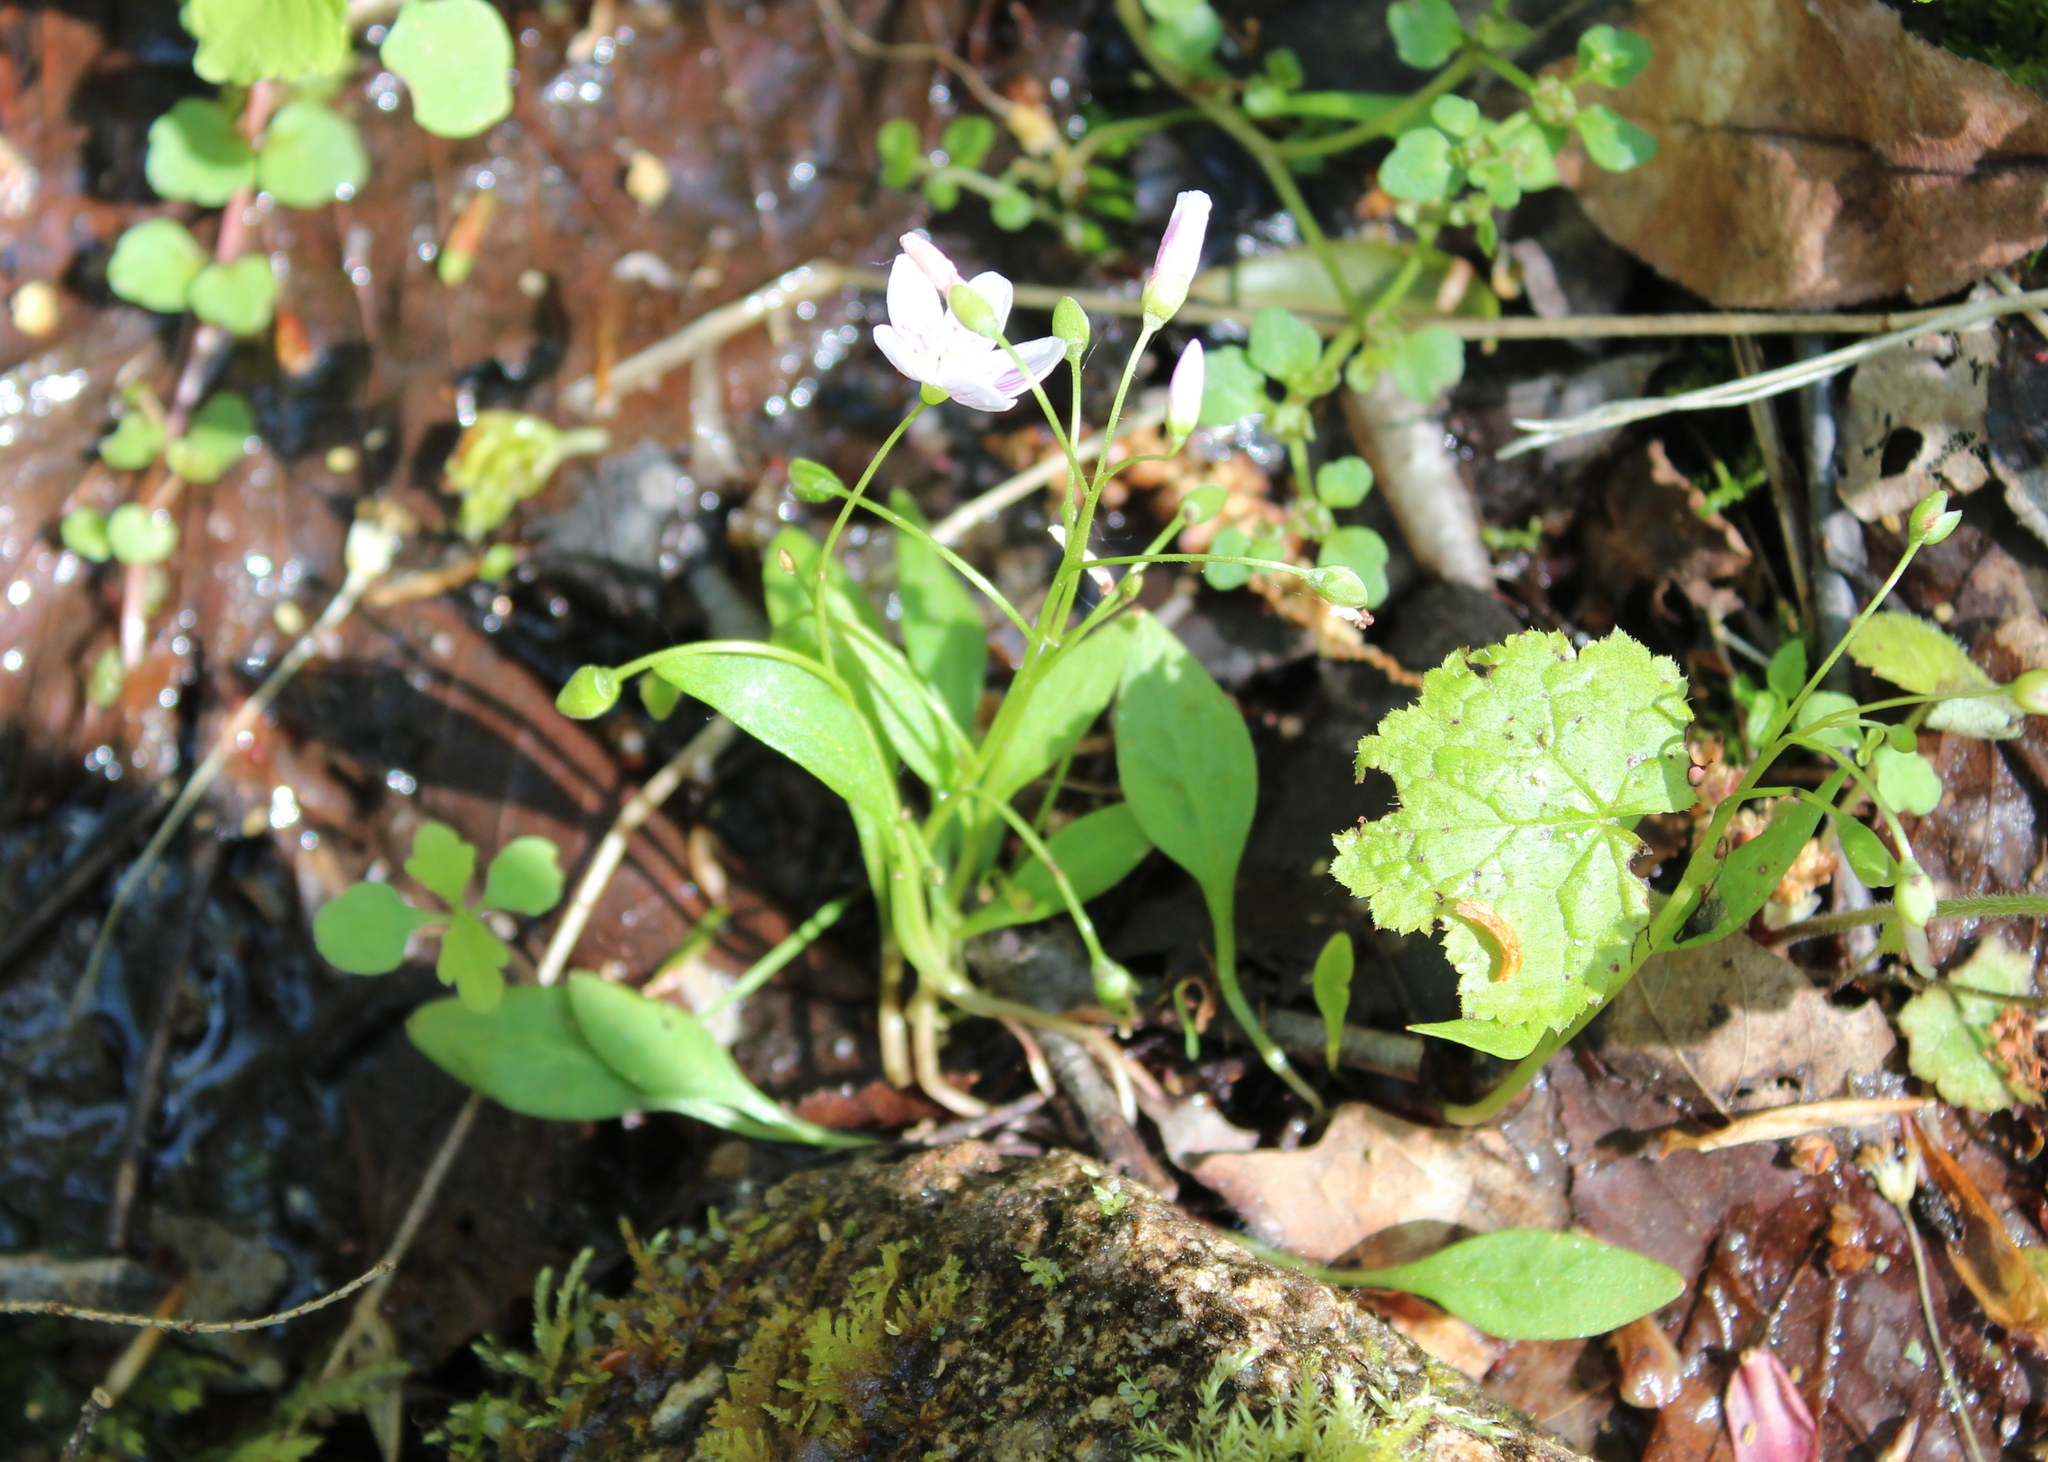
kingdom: Plantae
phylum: Tracheophyta
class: Magnoliopsida
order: Caryophyllales
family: Montiaceae
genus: Claytonia
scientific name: Claytonia caroliniana
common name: Carolina spring beauty
